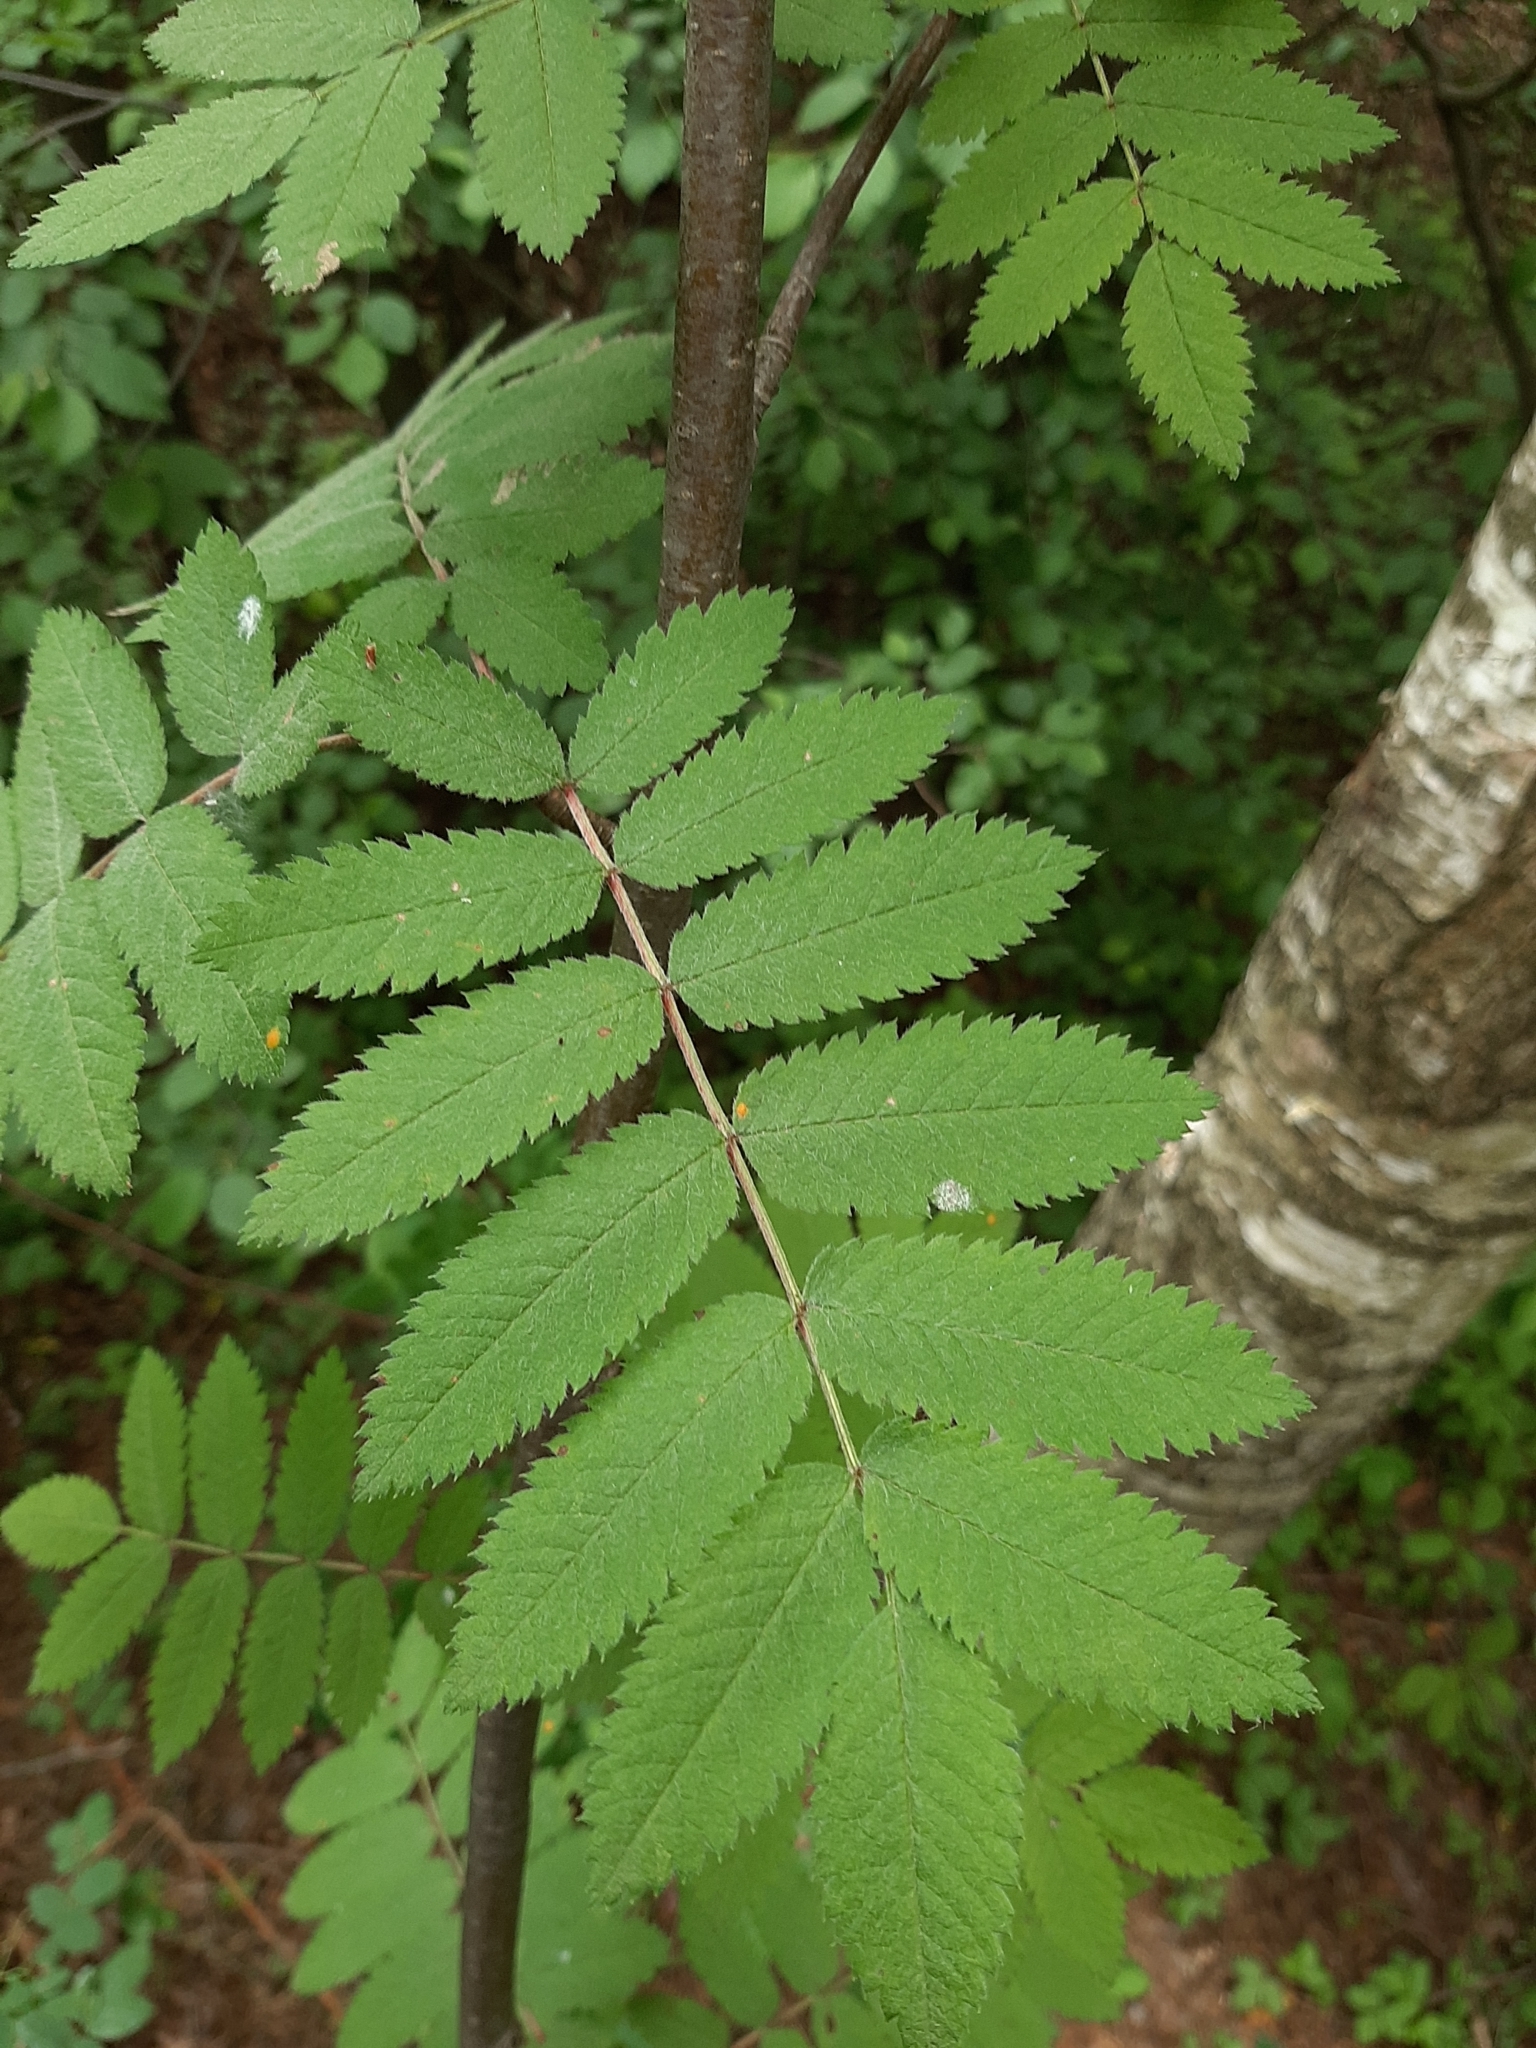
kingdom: Plantae
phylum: Tracheophyta
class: Magnoliopsida
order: Rosales
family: Rosaceae
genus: Sorbus
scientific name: Sorbus aucuparia
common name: Rowan
